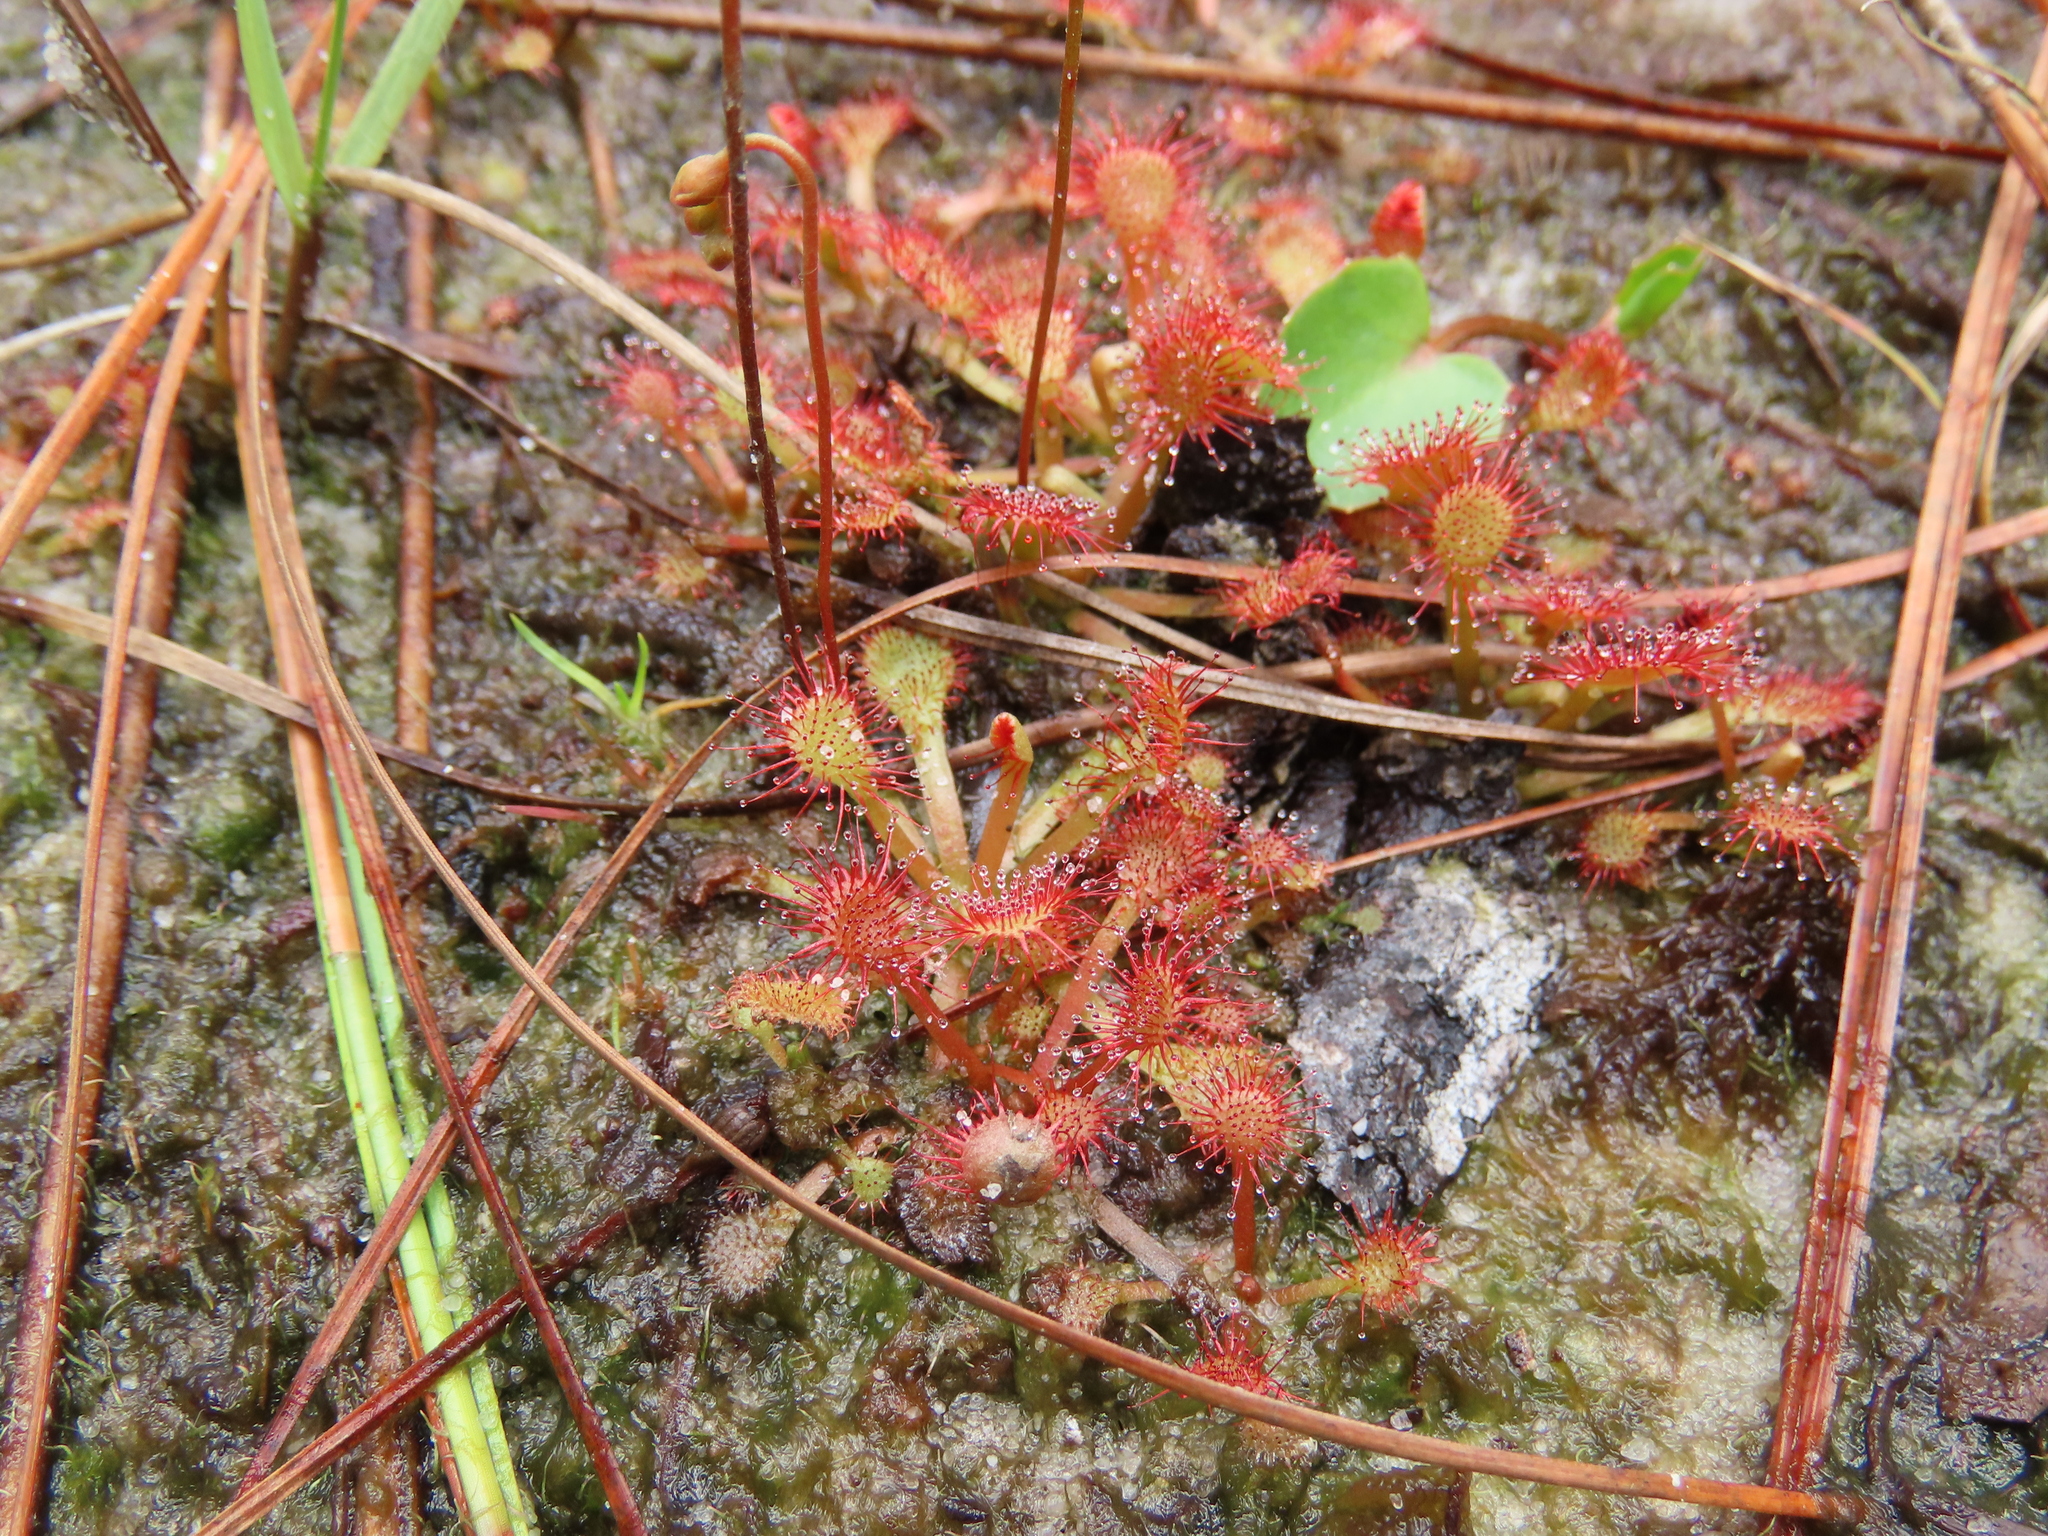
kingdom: Plantae
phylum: Tracheophyta
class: Magnoliopsida
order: Caryophyllales
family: Droseraceae
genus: Drosera
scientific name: Drosera capillaris
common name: Pink sundew
